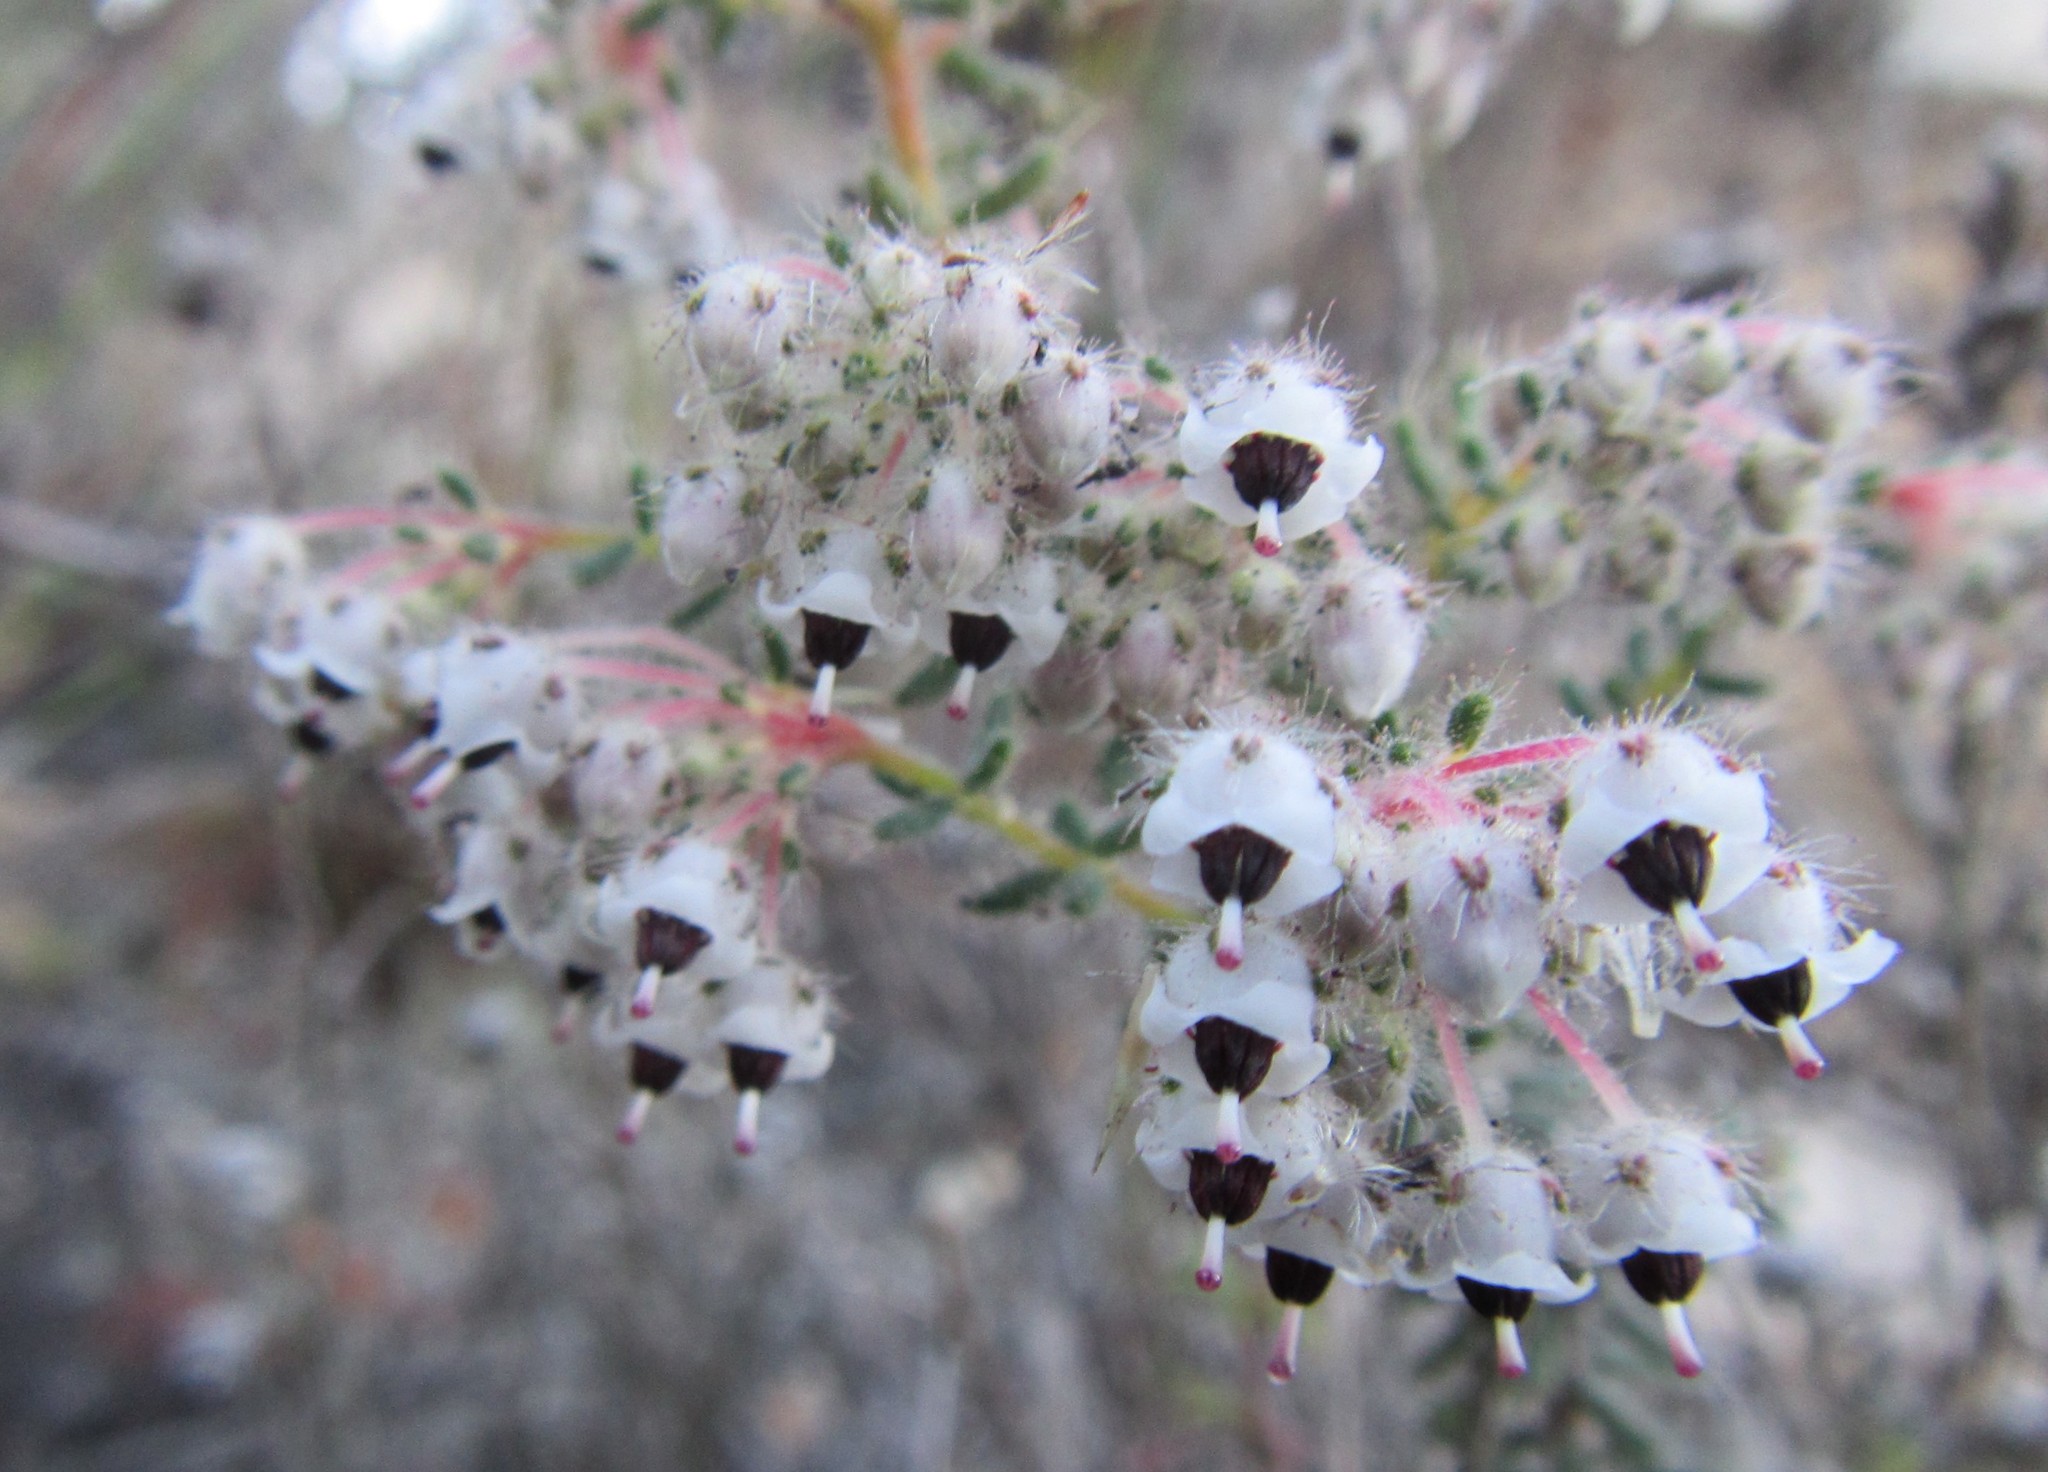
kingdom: Plantae
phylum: Tracheophyta
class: Magnoliopsida
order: Ericales
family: Ericaceae
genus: Erica
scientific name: Erica perlata
